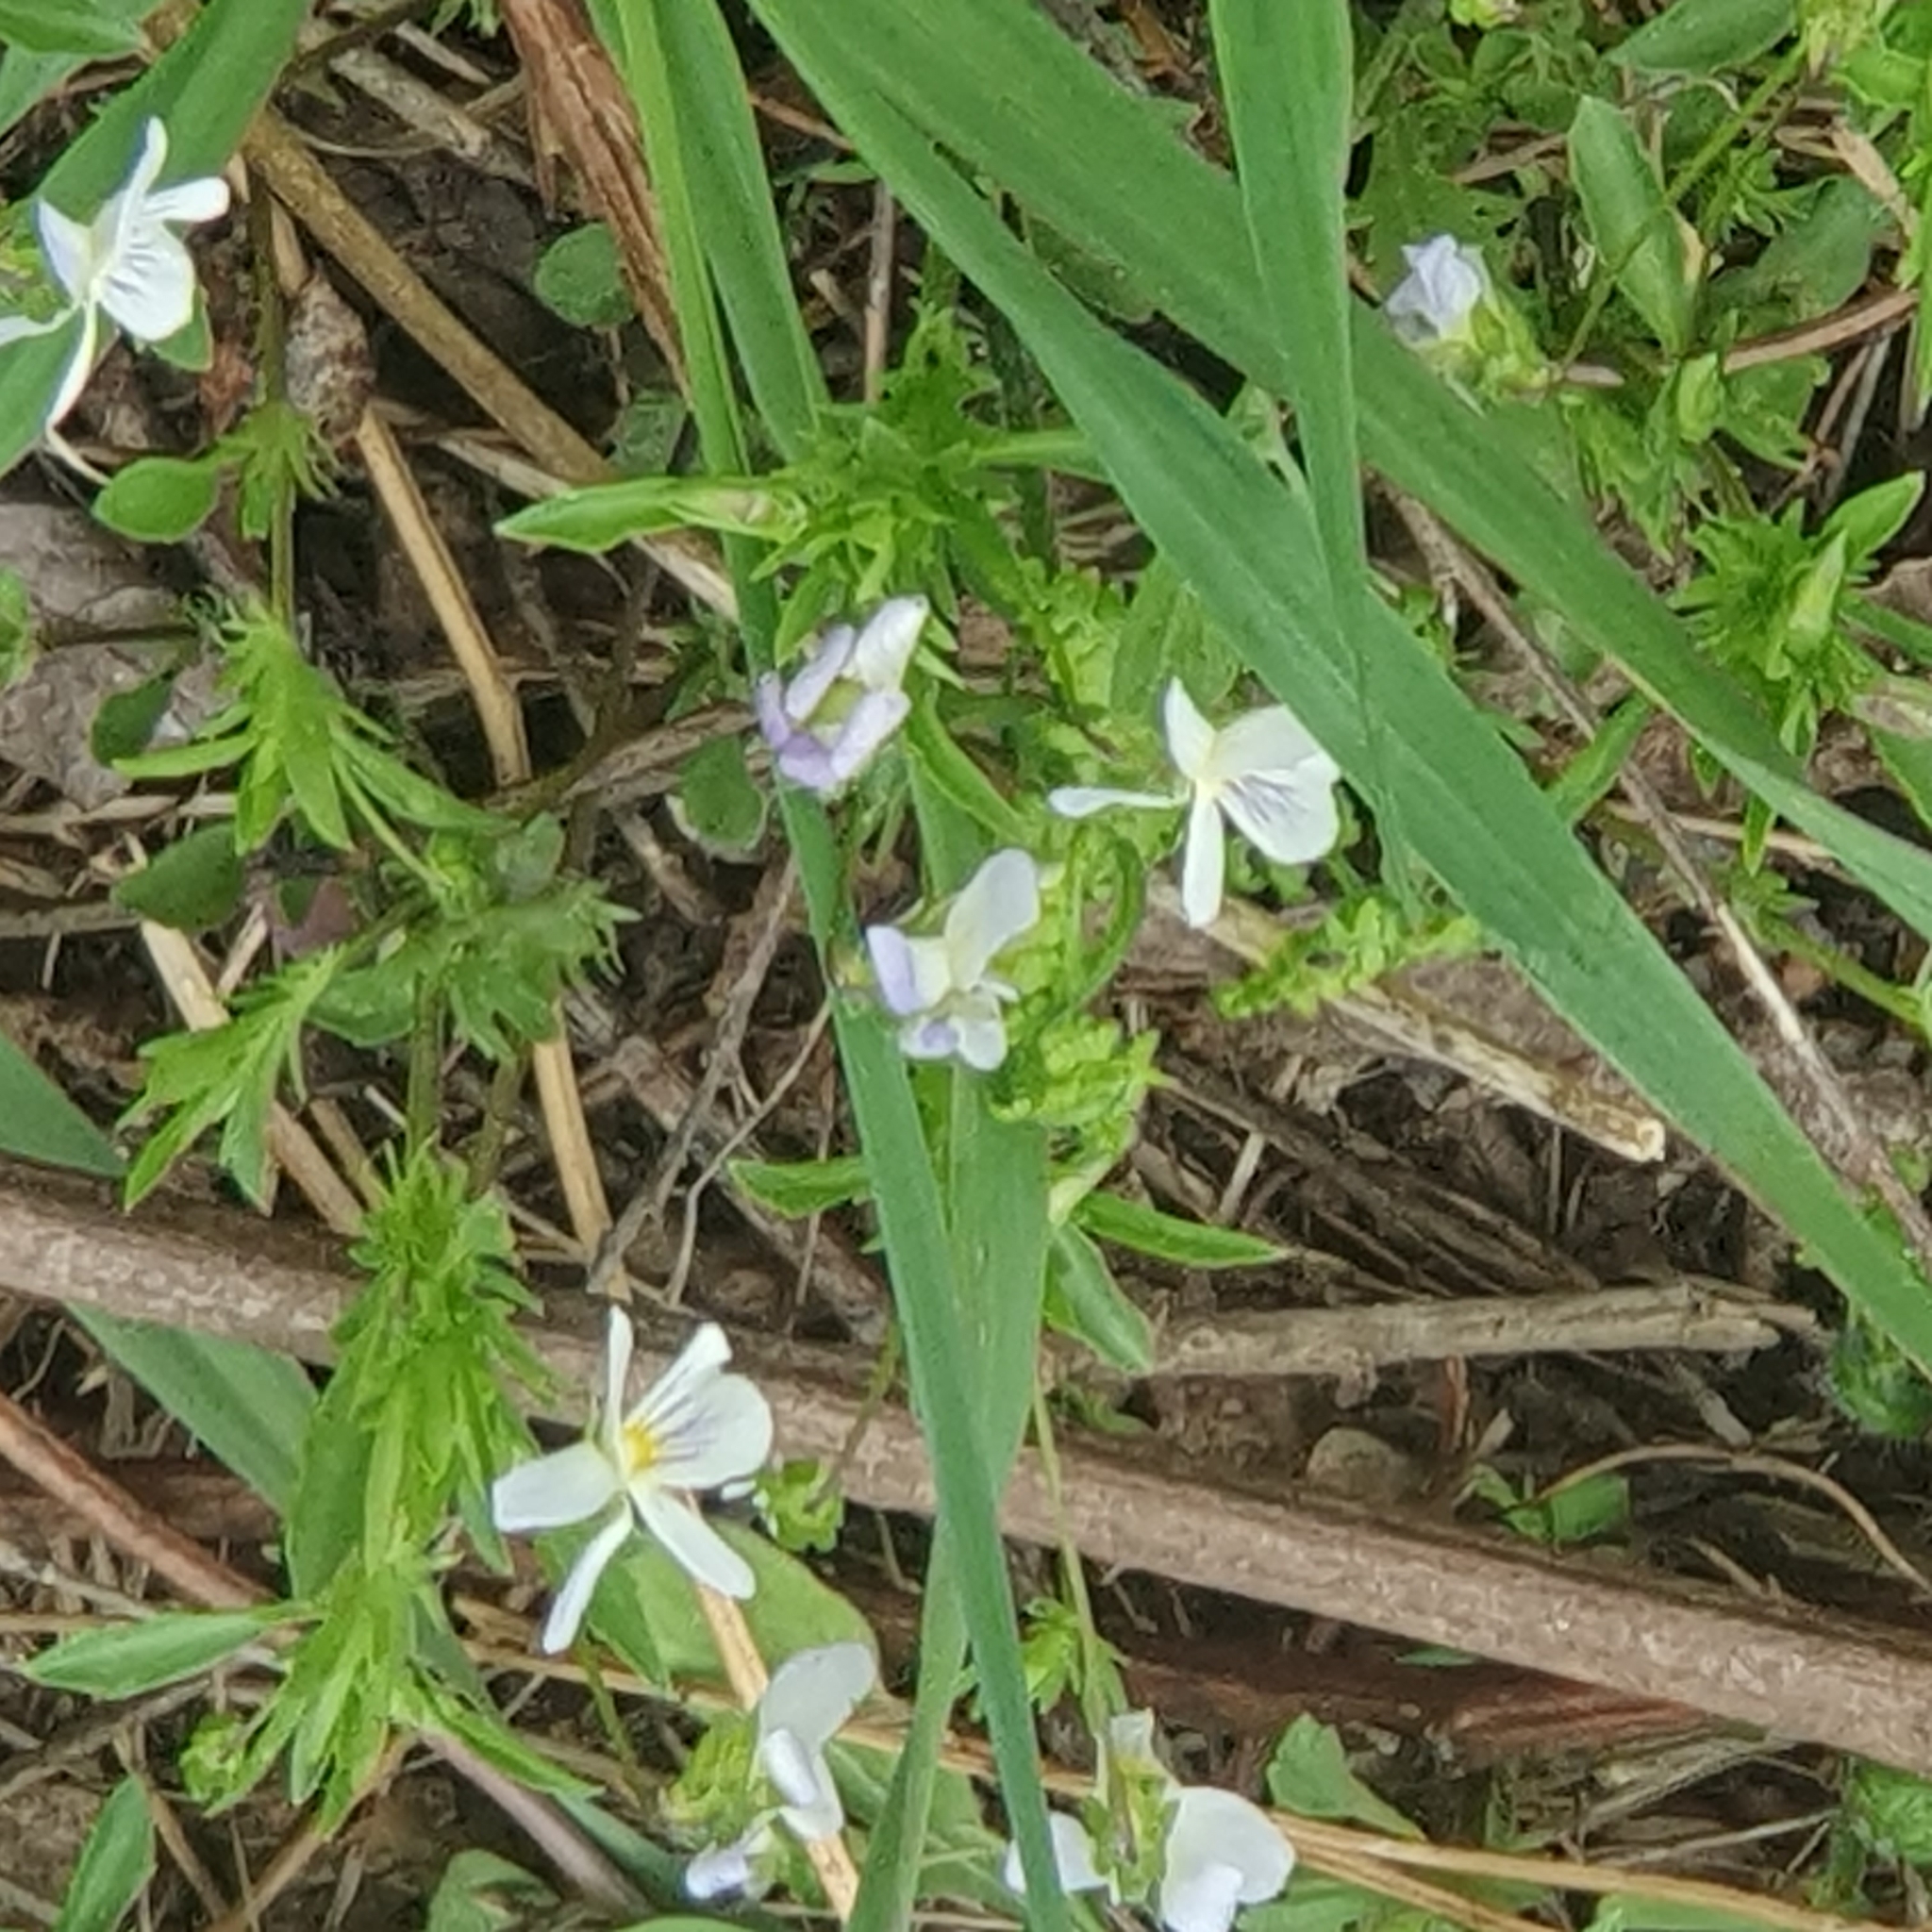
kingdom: Plantae
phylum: Tracheophyta
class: Magnoliopsida
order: Malpighiales
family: Violaceae
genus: Viola
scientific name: Viola rafinesquei
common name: American field pansy
